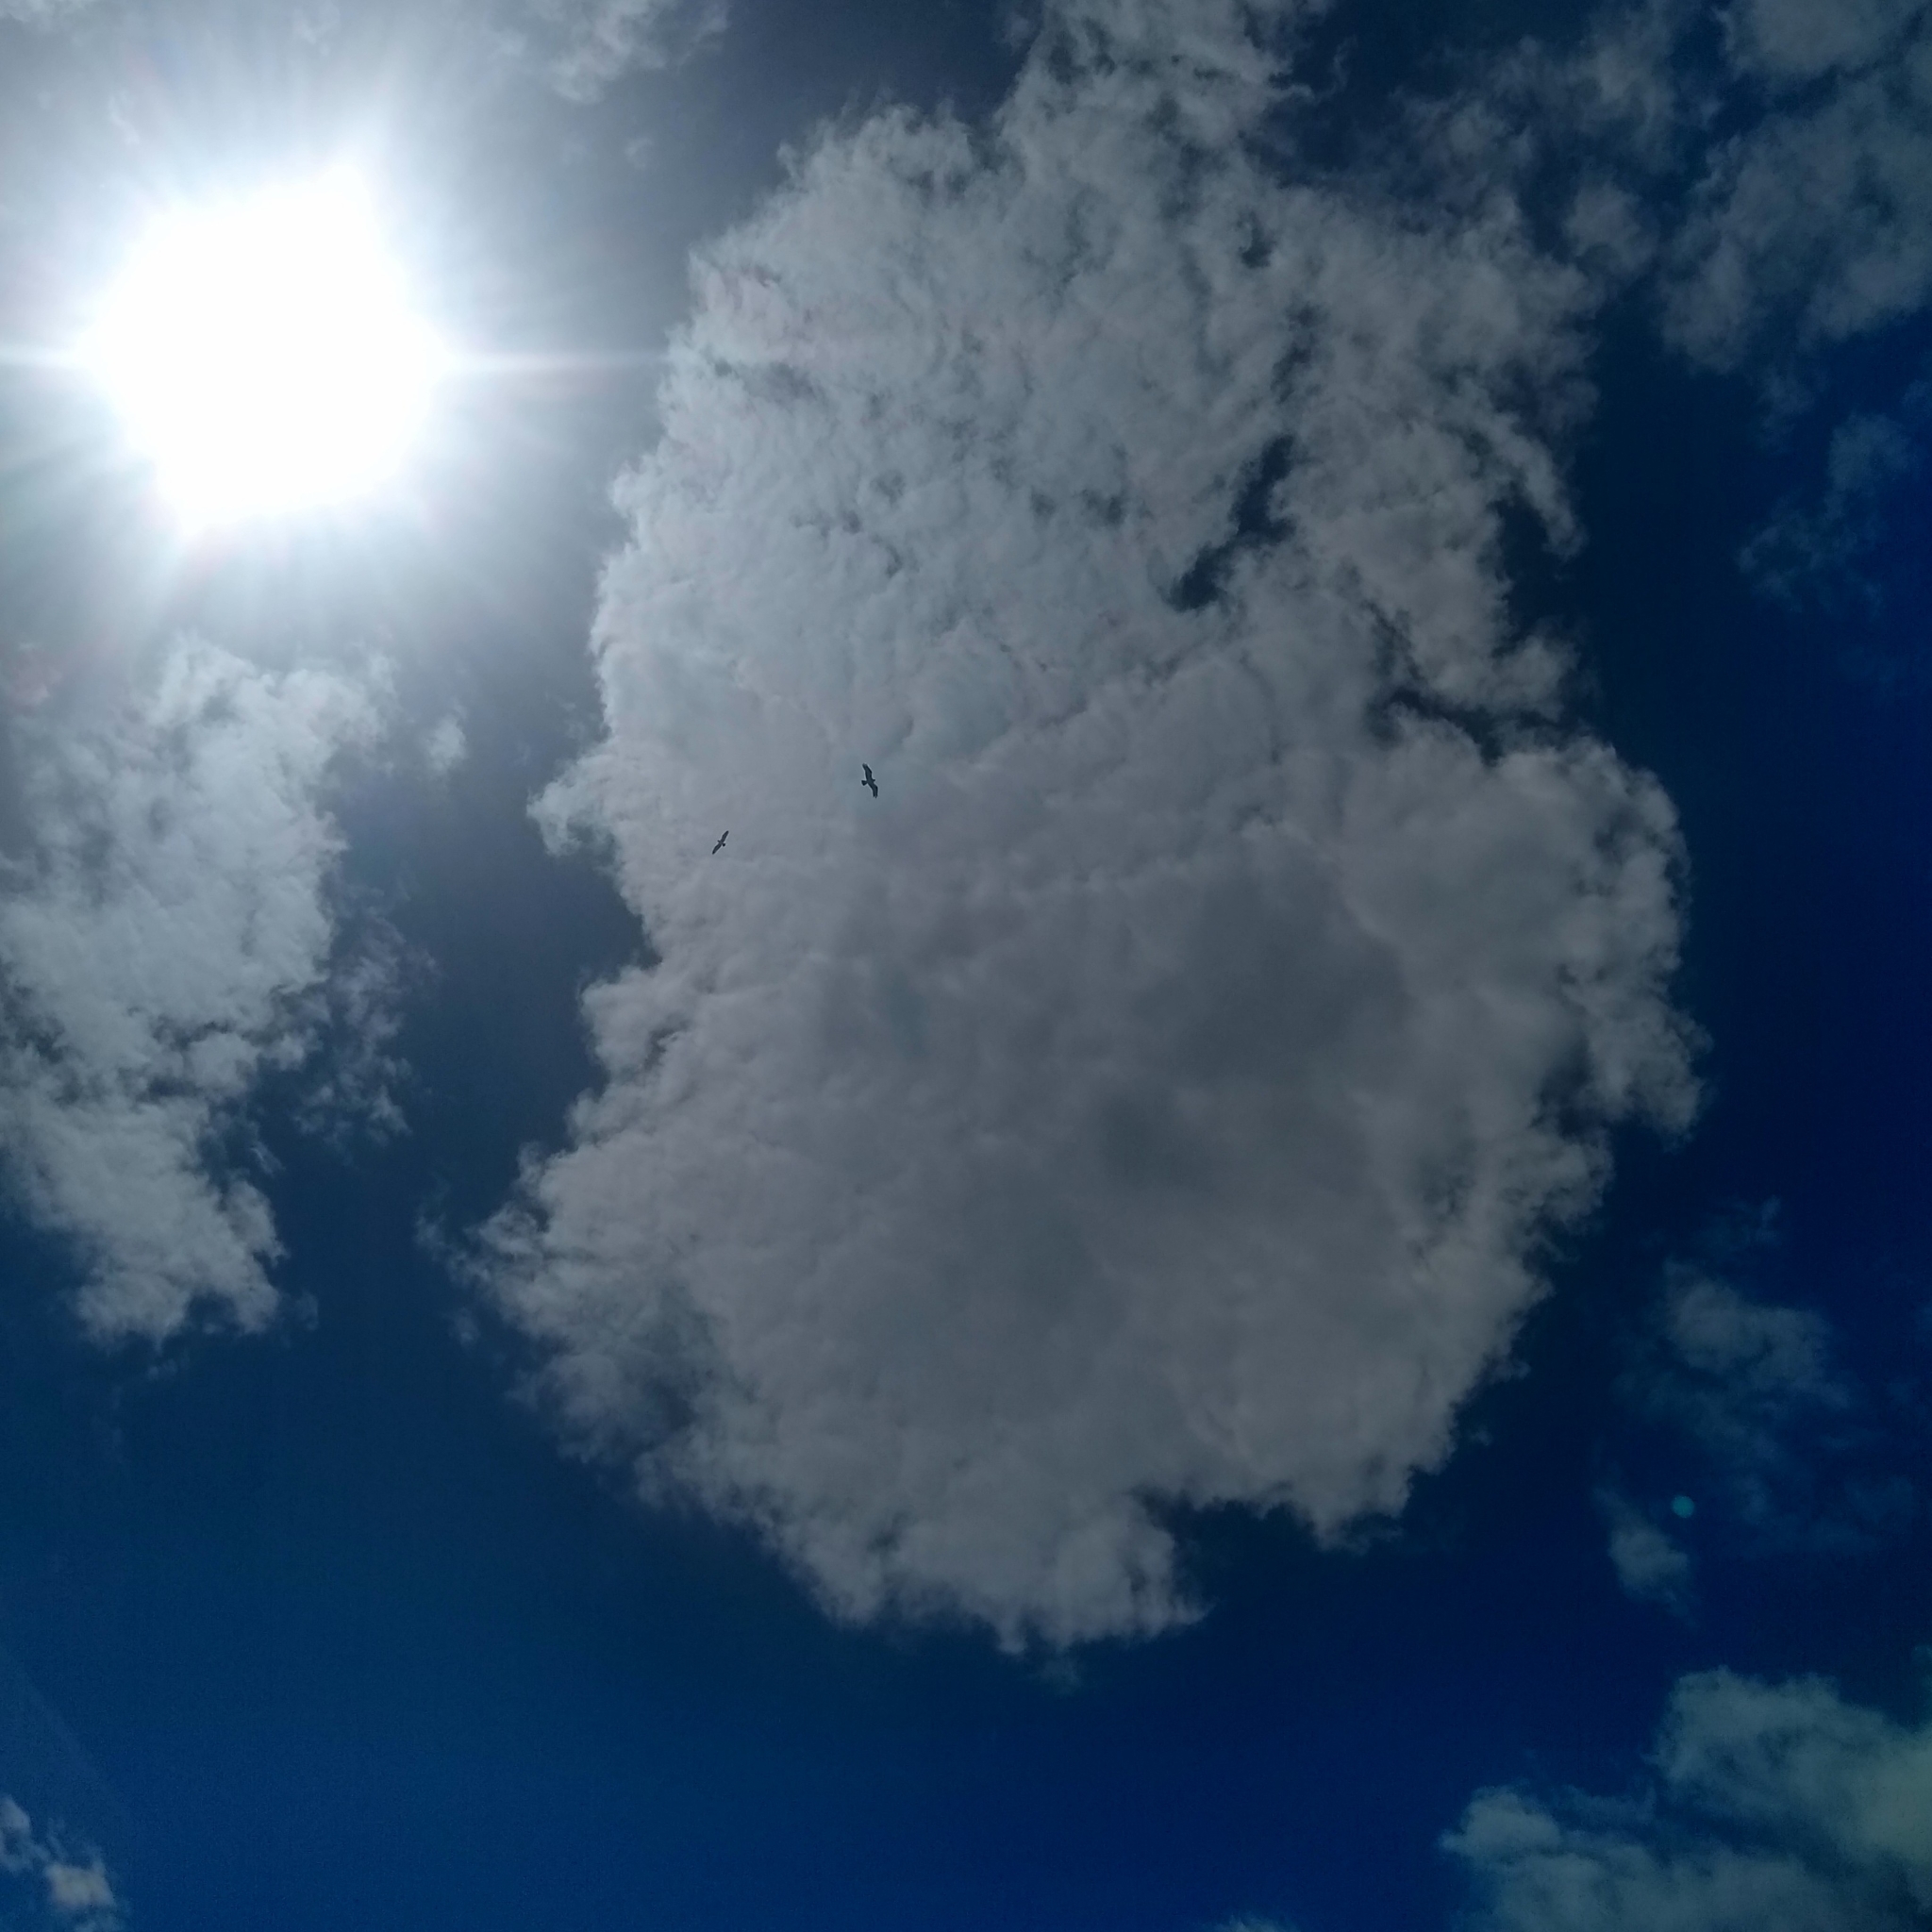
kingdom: Animalia
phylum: Chordata
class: Aves
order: Accipitriformes
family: Pandionidae
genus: Pandion
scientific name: Pandion haliaetus
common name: Osprey
